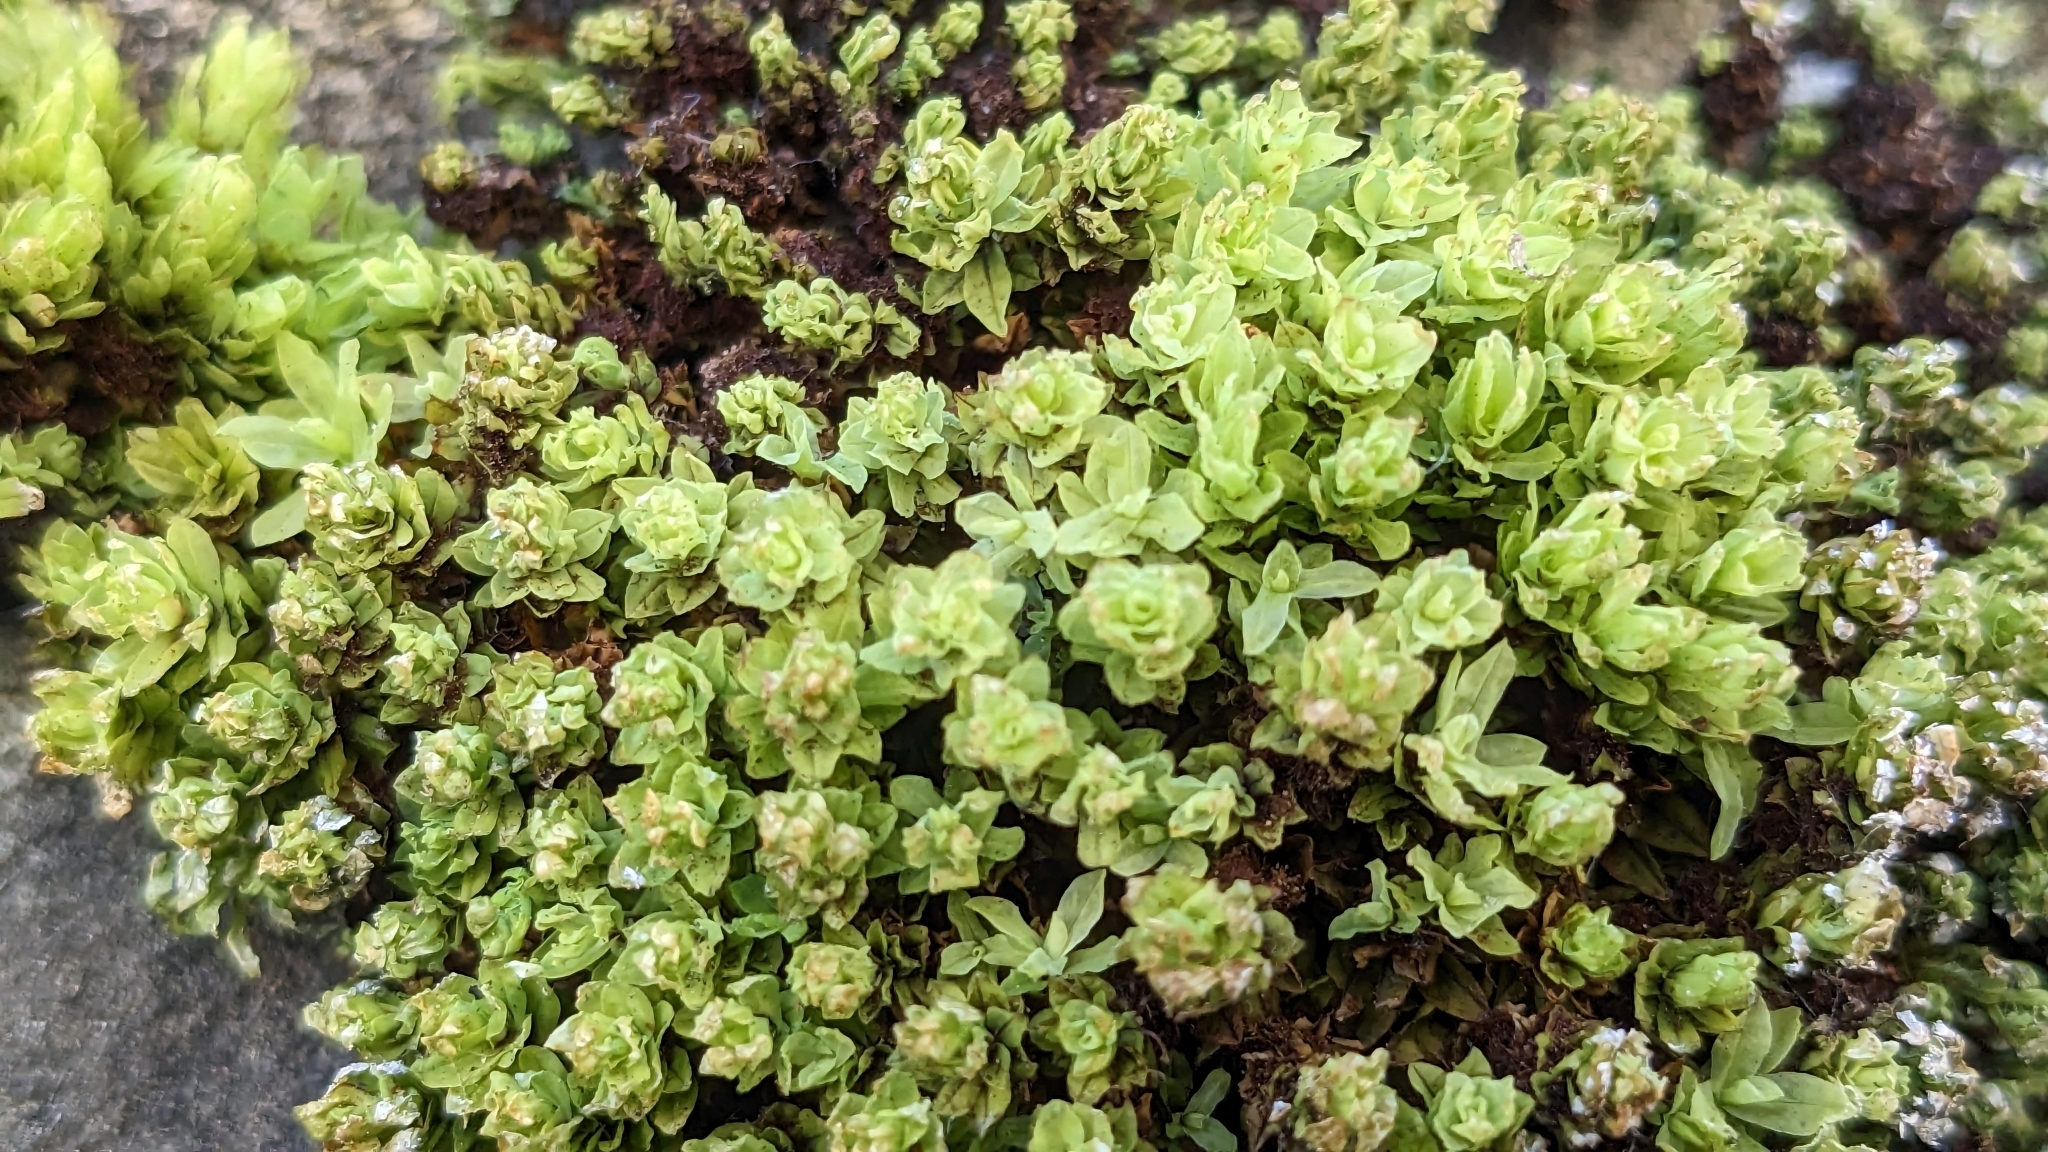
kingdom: Plantae
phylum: Bryophyta
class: Bryopsida
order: Encalyptales
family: Encalyptaceae
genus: Encalypta
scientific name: Encalypta streptocarpa
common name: Spiral extinguisher-moss
